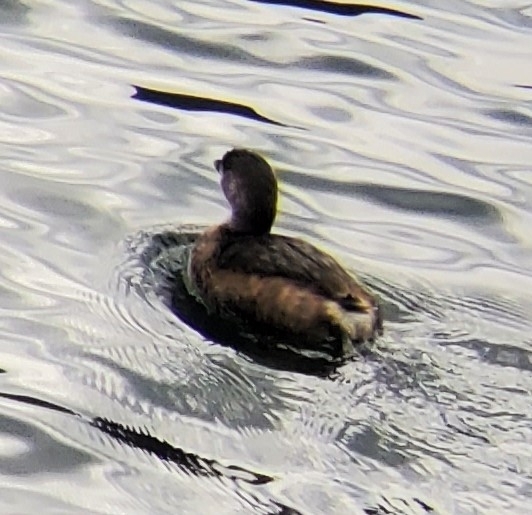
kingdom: Animalia
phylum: Chordata
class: Aves
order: Podicipediformes
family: Podicipedidae
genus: Podilymbus
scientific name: Podilymbus podiceps
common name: Pied-billed grebe
